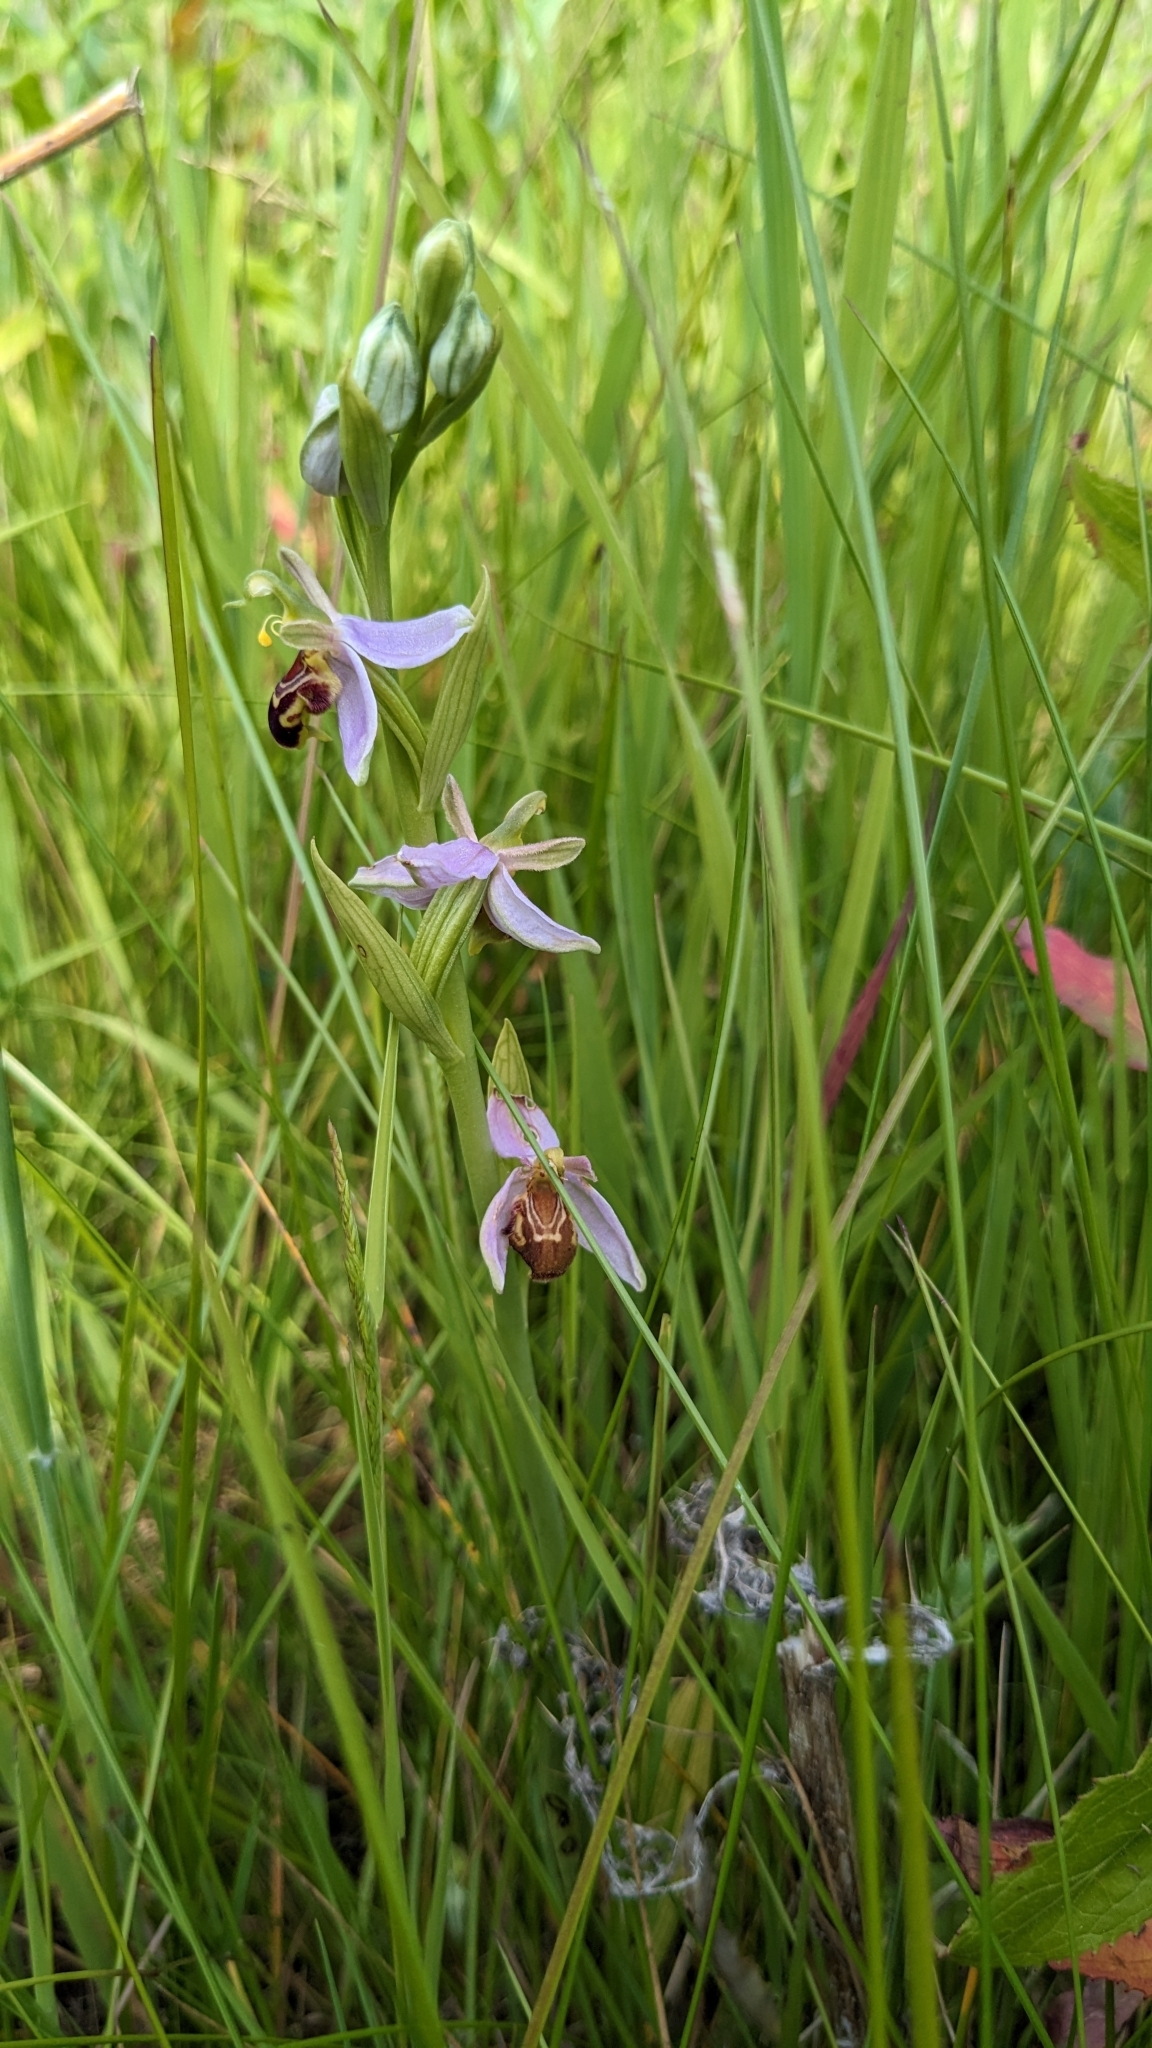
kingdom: Plantae
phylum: Tracheophyta
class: Liliopsida
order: Asparagales
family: Orchidaceae
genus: Ophrys
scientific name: Ophrys apifera
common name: Bee orchid
